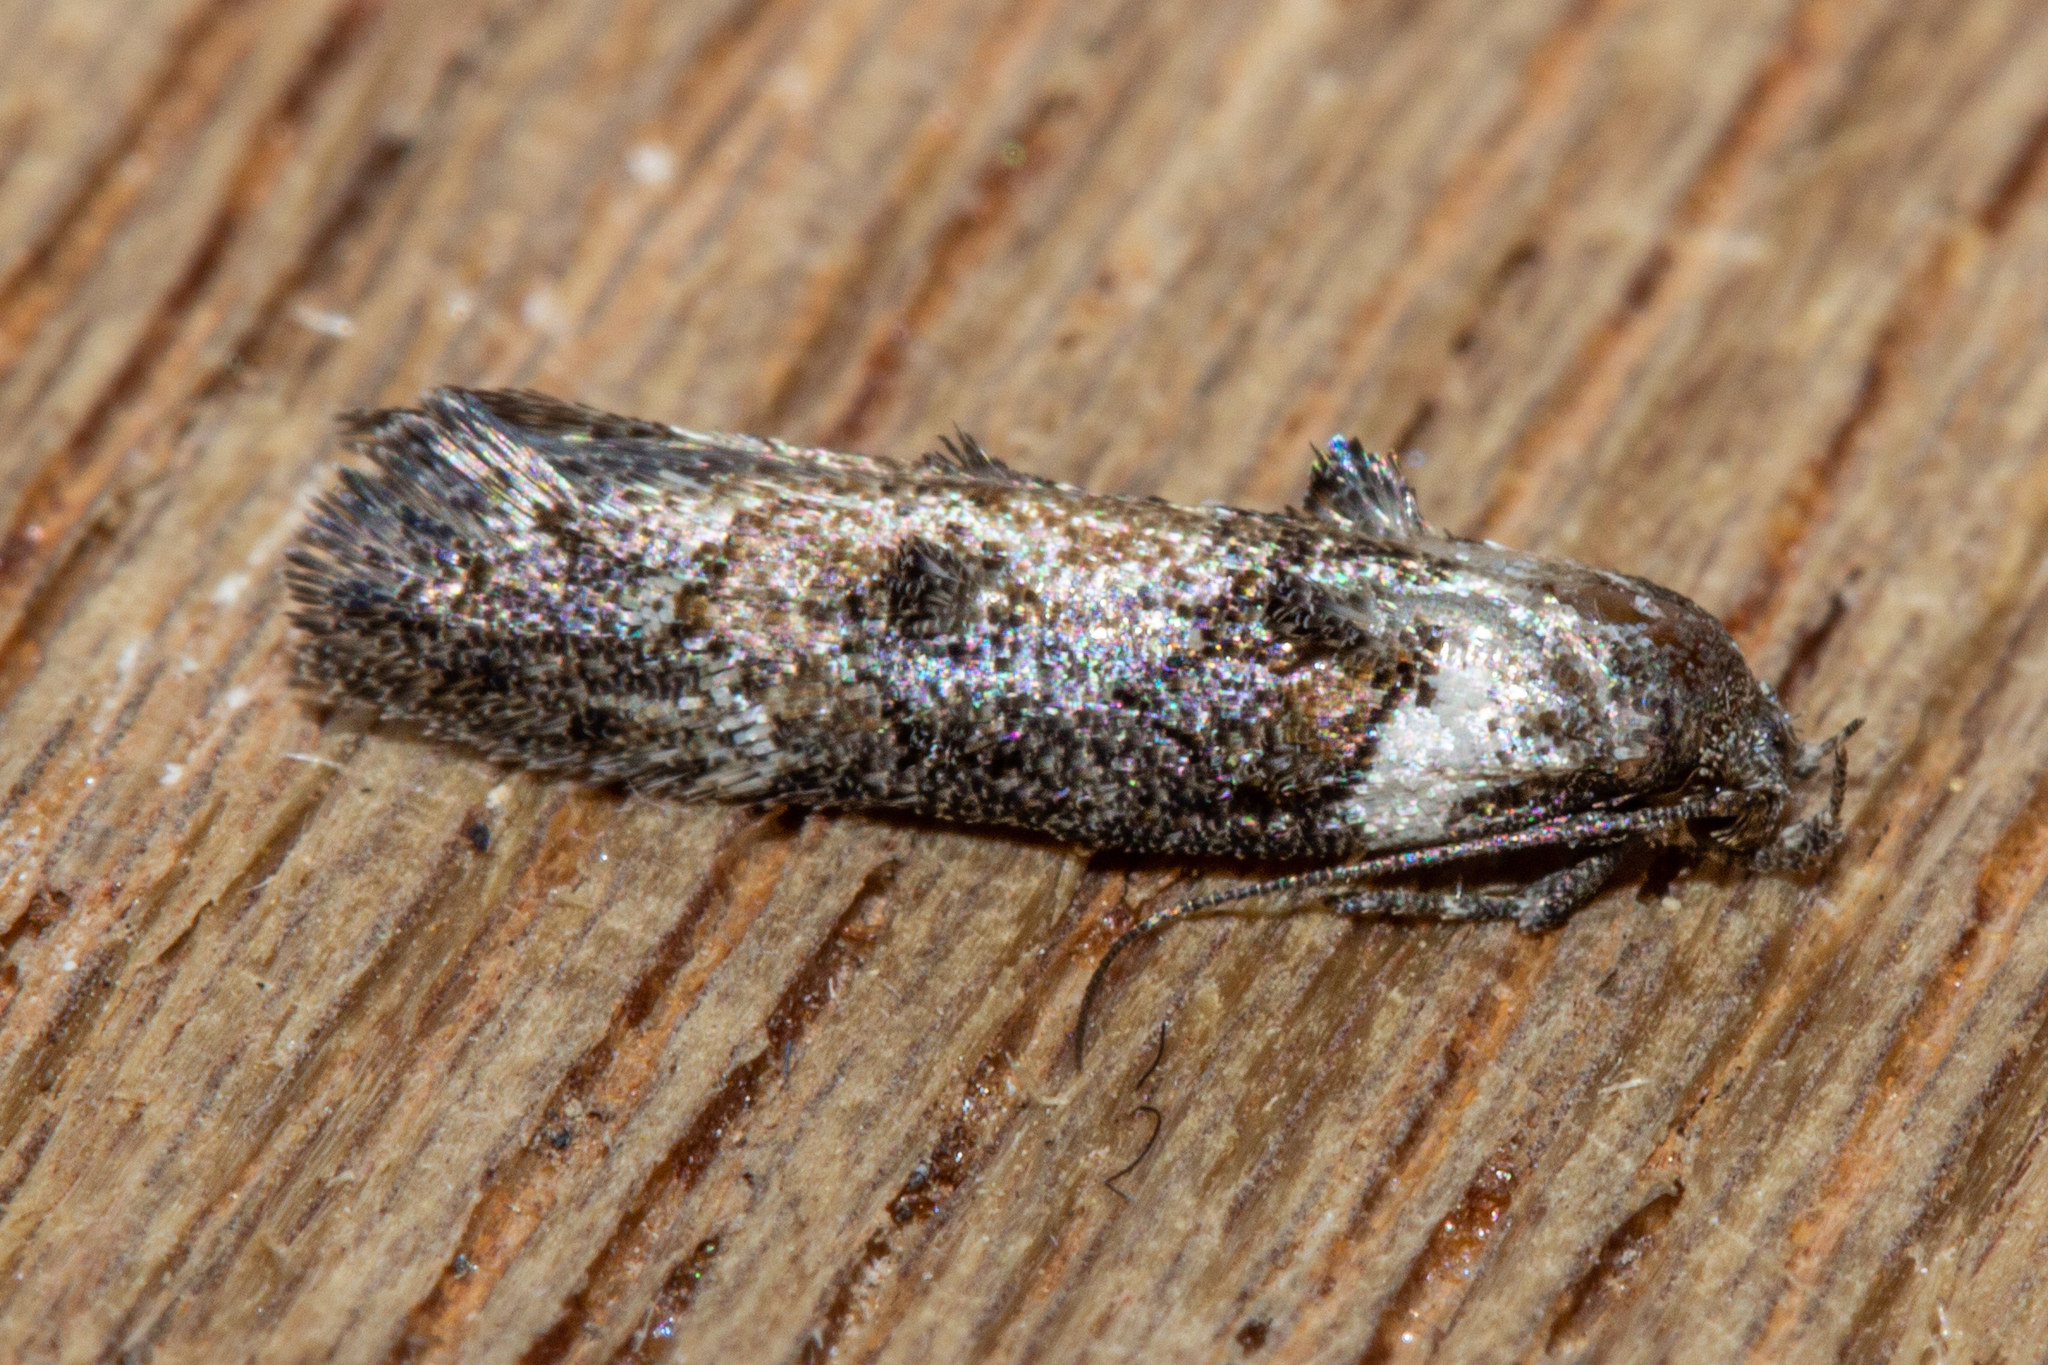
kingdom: Animalia
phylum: Arthropoda
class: Insecta
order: Lepidoptera
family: Oecophoridae
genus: Trachypepla
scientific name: Trachypepla conspicuella
